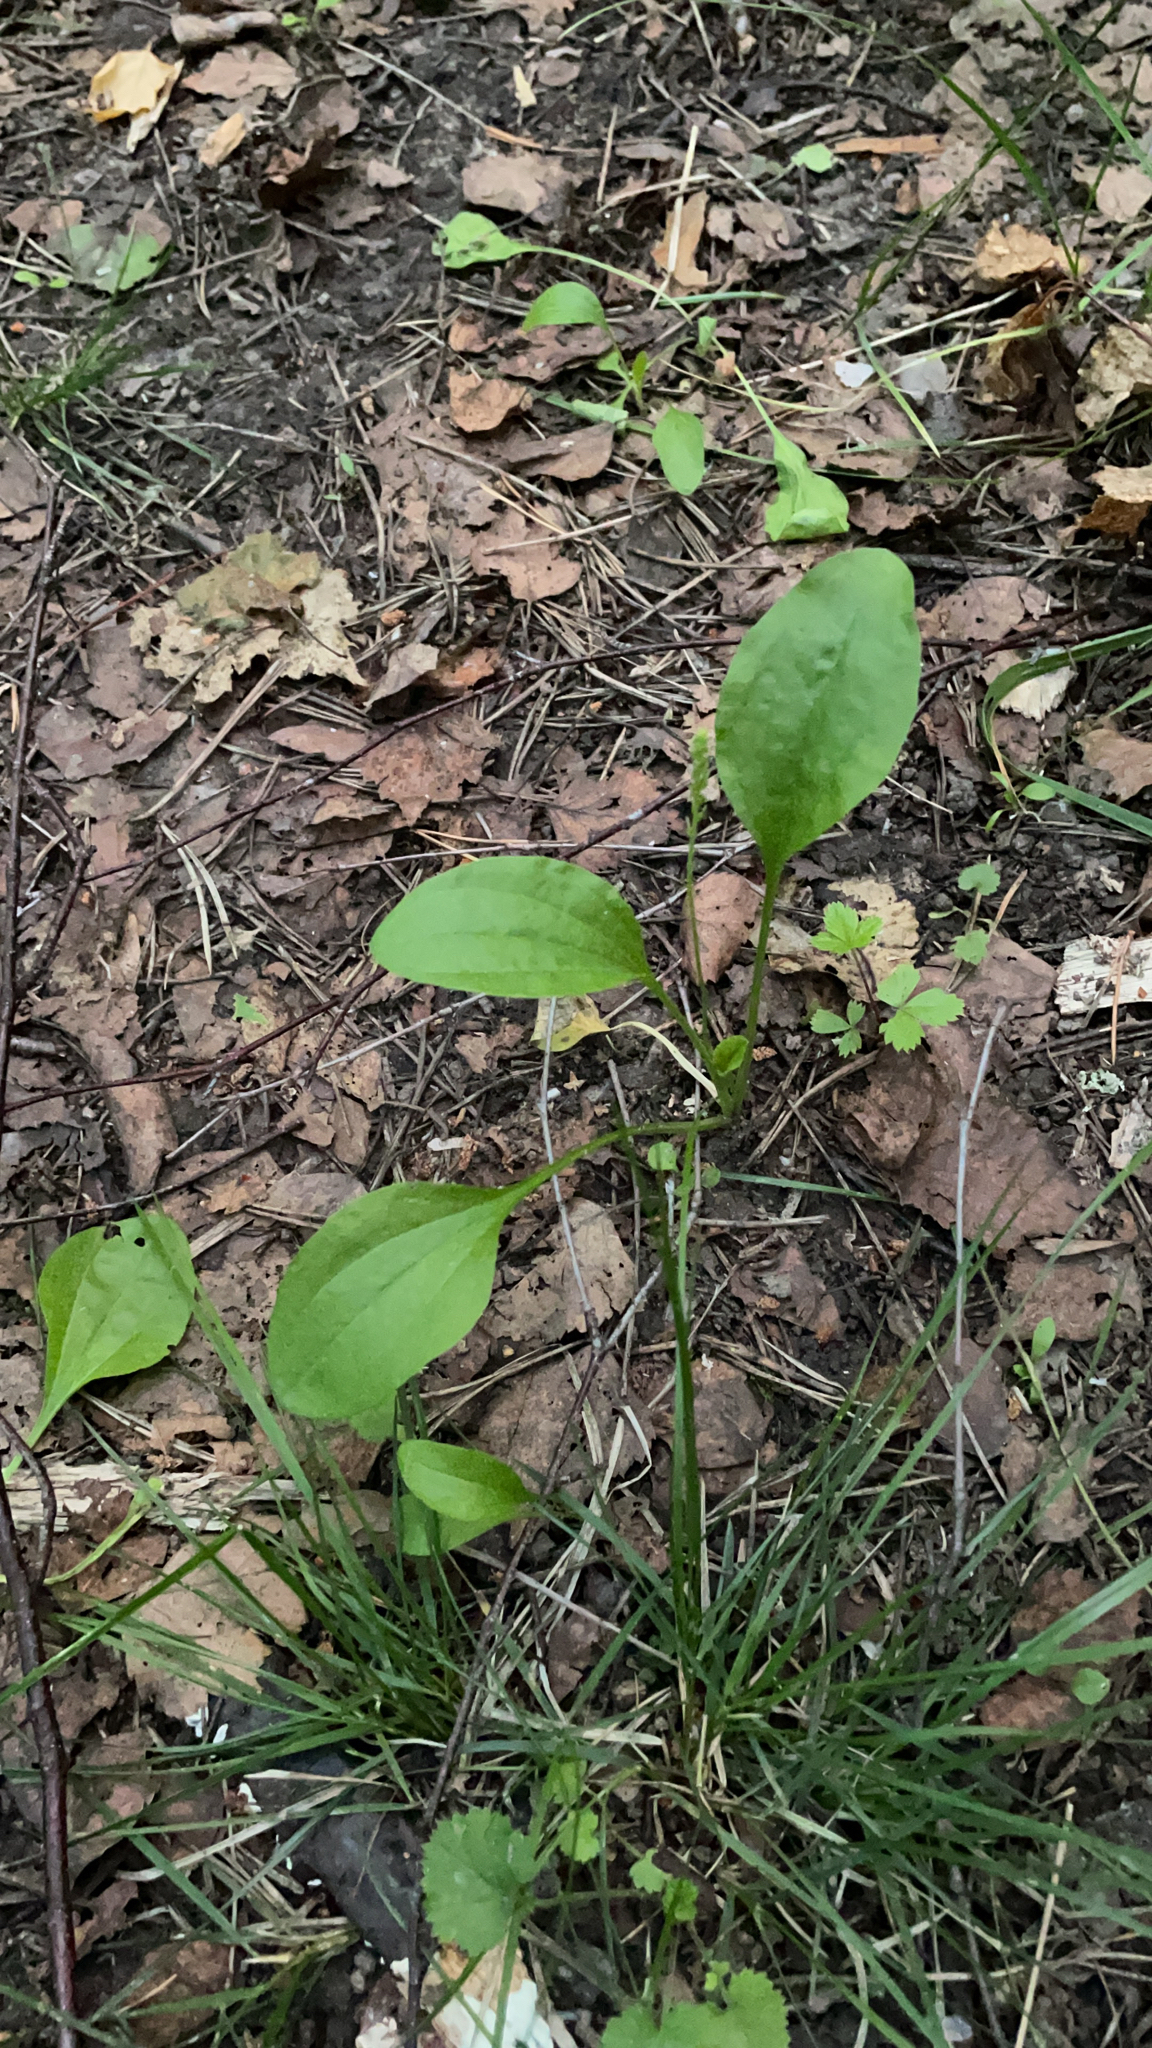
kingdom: Plantae
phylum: Tracheophyta
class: Magnoliopsida
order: Lamiales
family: Plantaginaceae
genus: Plantago
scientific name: Plantago major
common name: Common plantain
